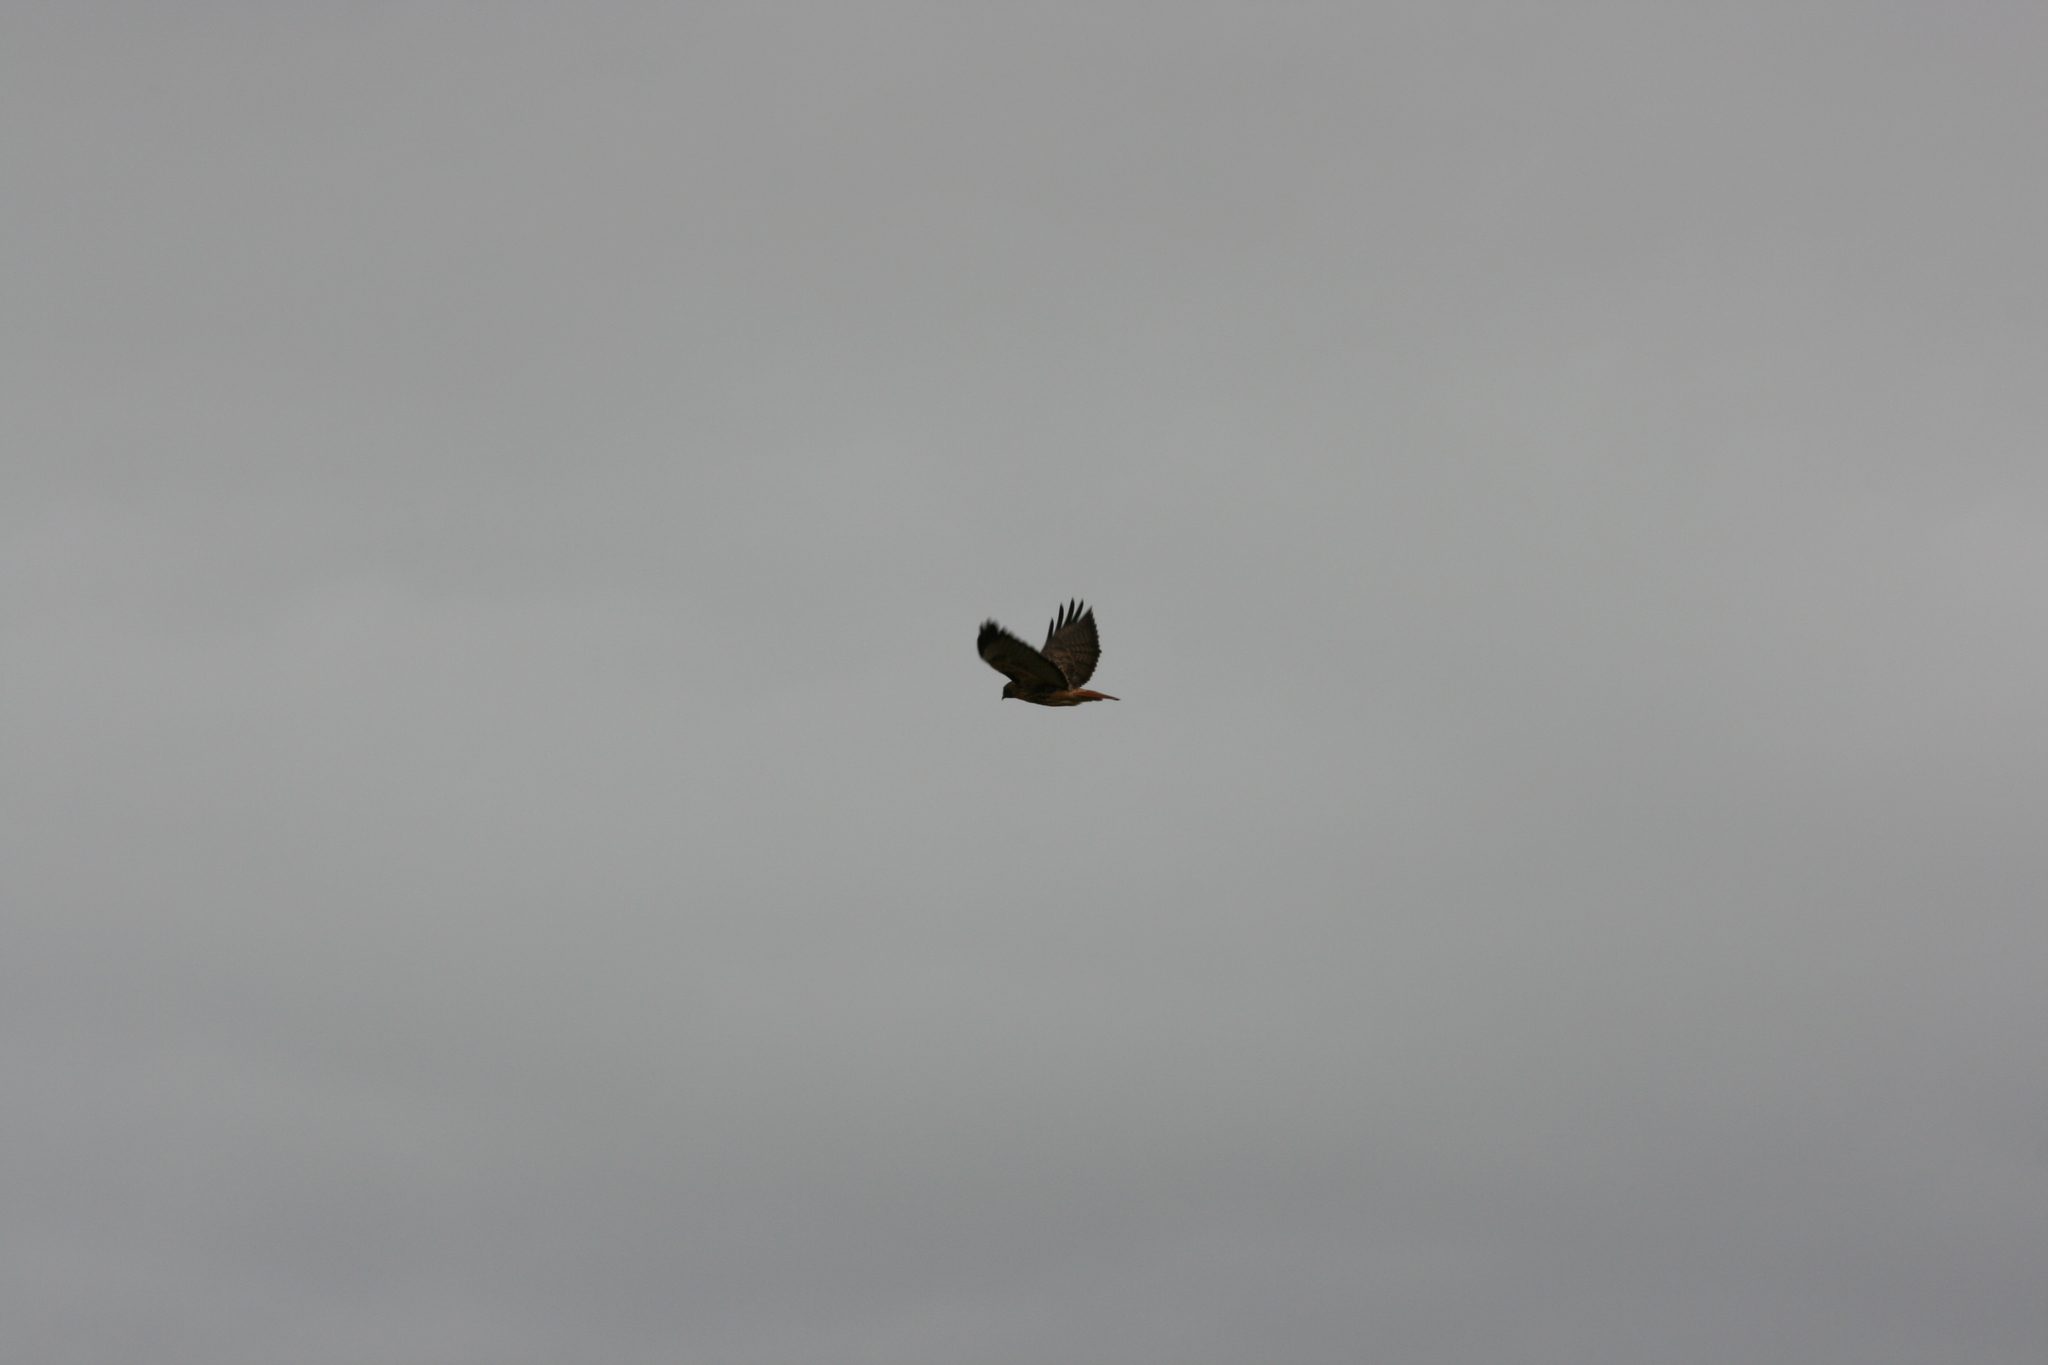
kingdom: Animalia
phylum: Chordata
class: Aves
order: Accipitriformes
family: Accipitridae
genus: Buteo
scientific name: Buteo jamaicensis
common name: Red-tailed hawk
